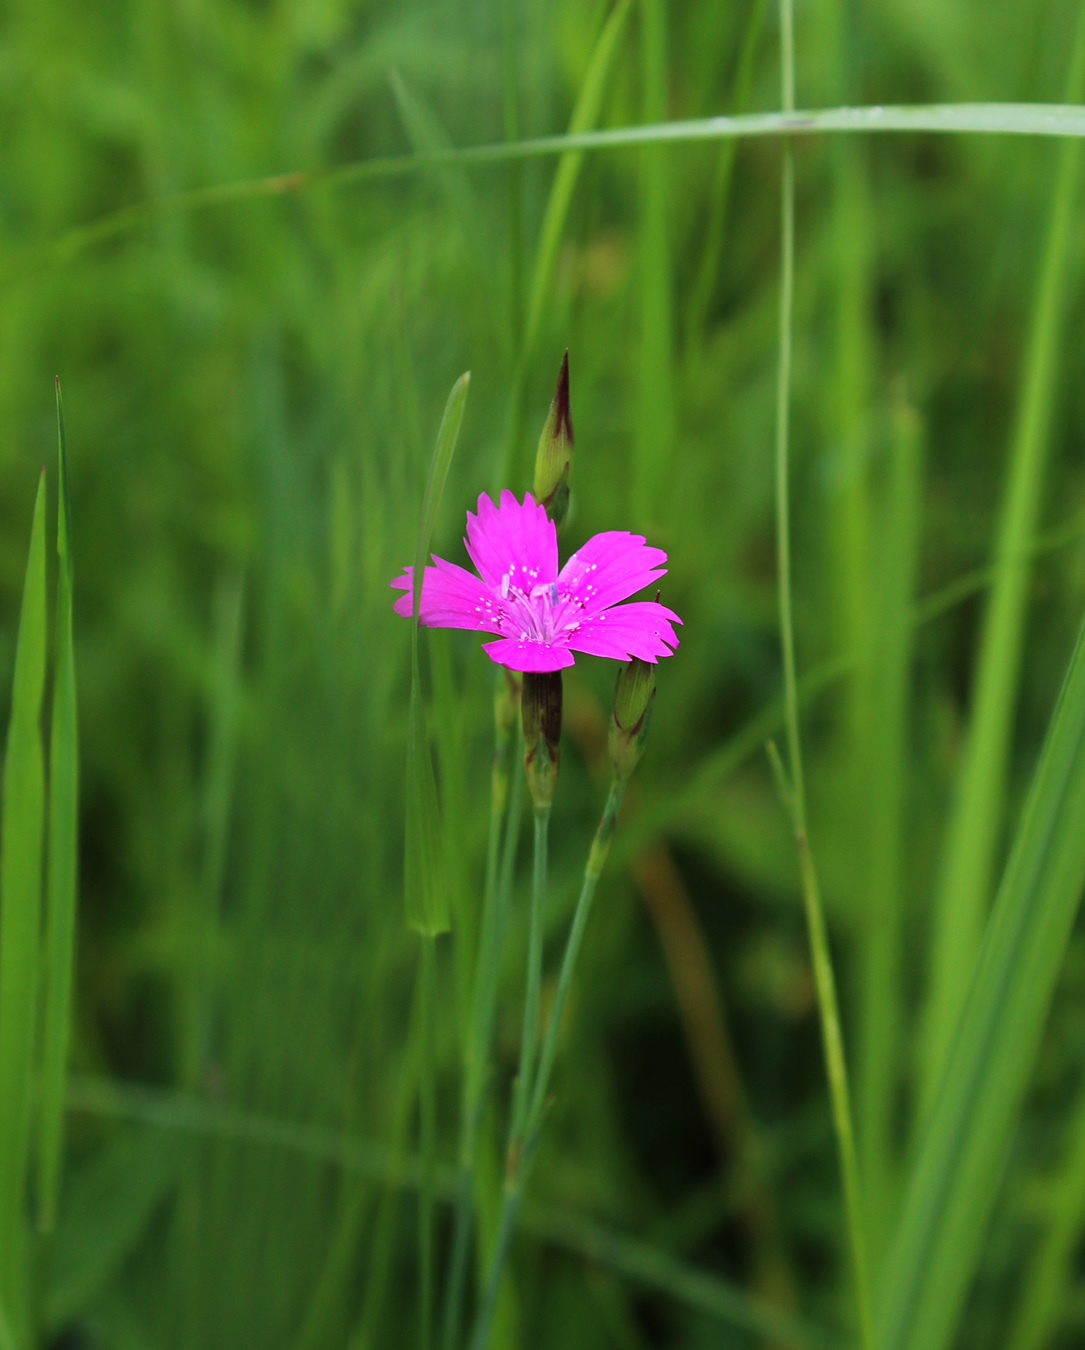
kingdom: Plantae
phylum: Tracheophyta
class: Magnoliopsida
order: Caryophyllales
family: Caryophyllaceae
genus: Dianthus
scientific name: Dianthus deltoides
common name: Maiden pink
